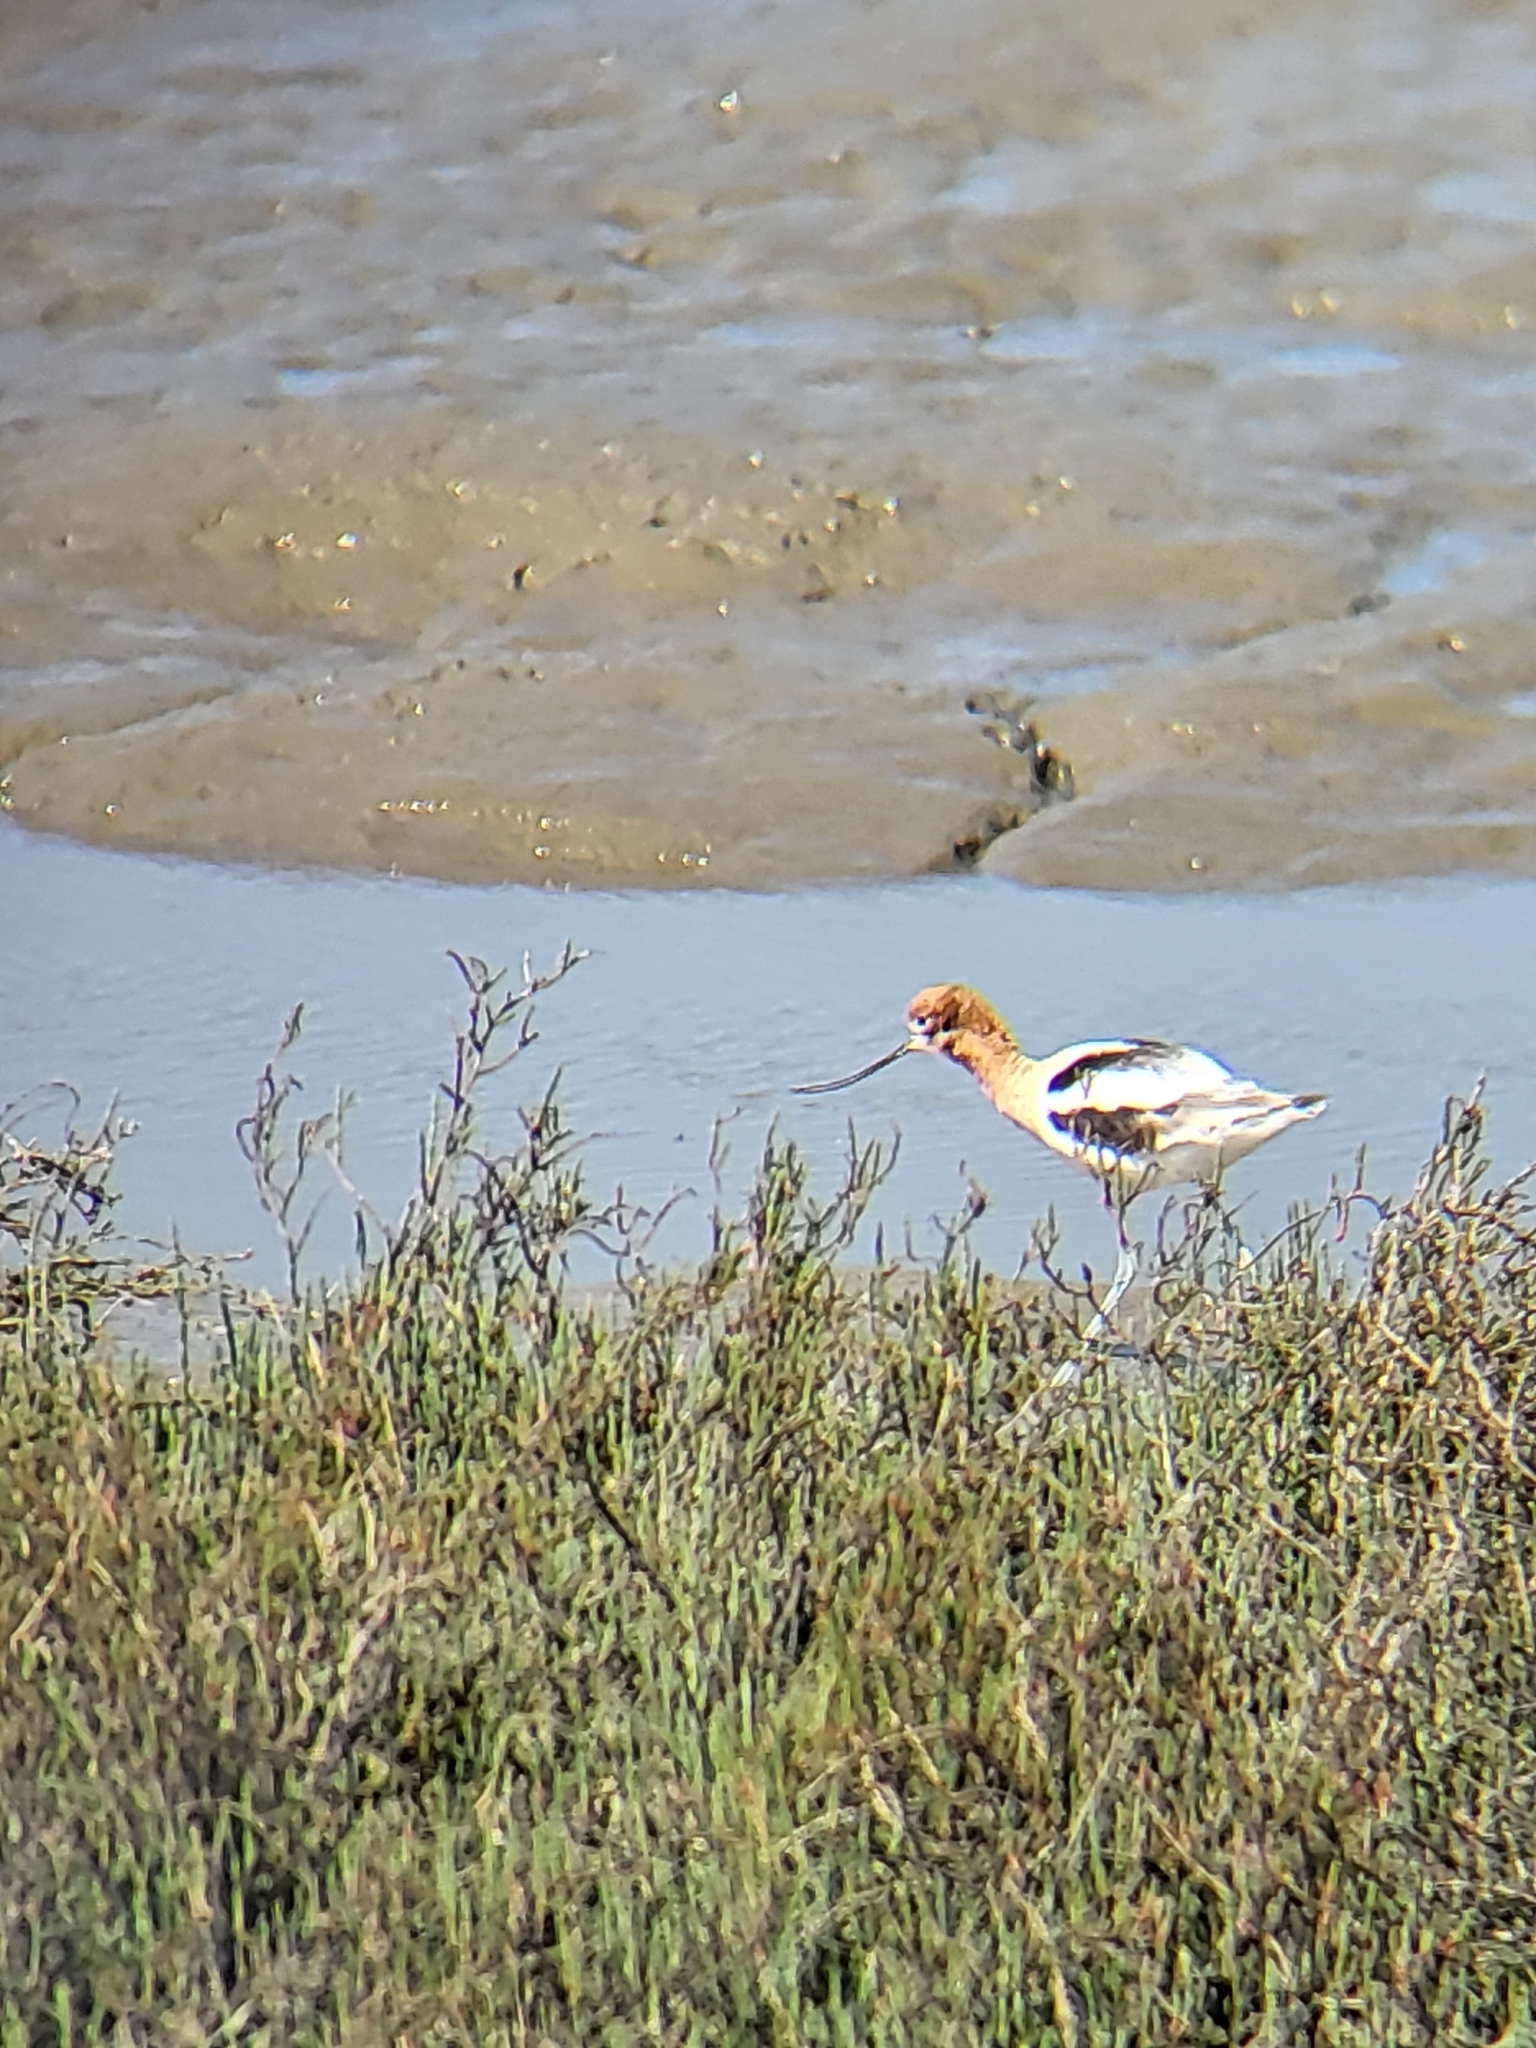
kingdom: Animalia
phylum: Chordata
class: Aves
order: Charadriiformes
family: Recurvirostridae
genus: Recurvirostra
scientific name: Recurvirostra americana
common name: American avocet
